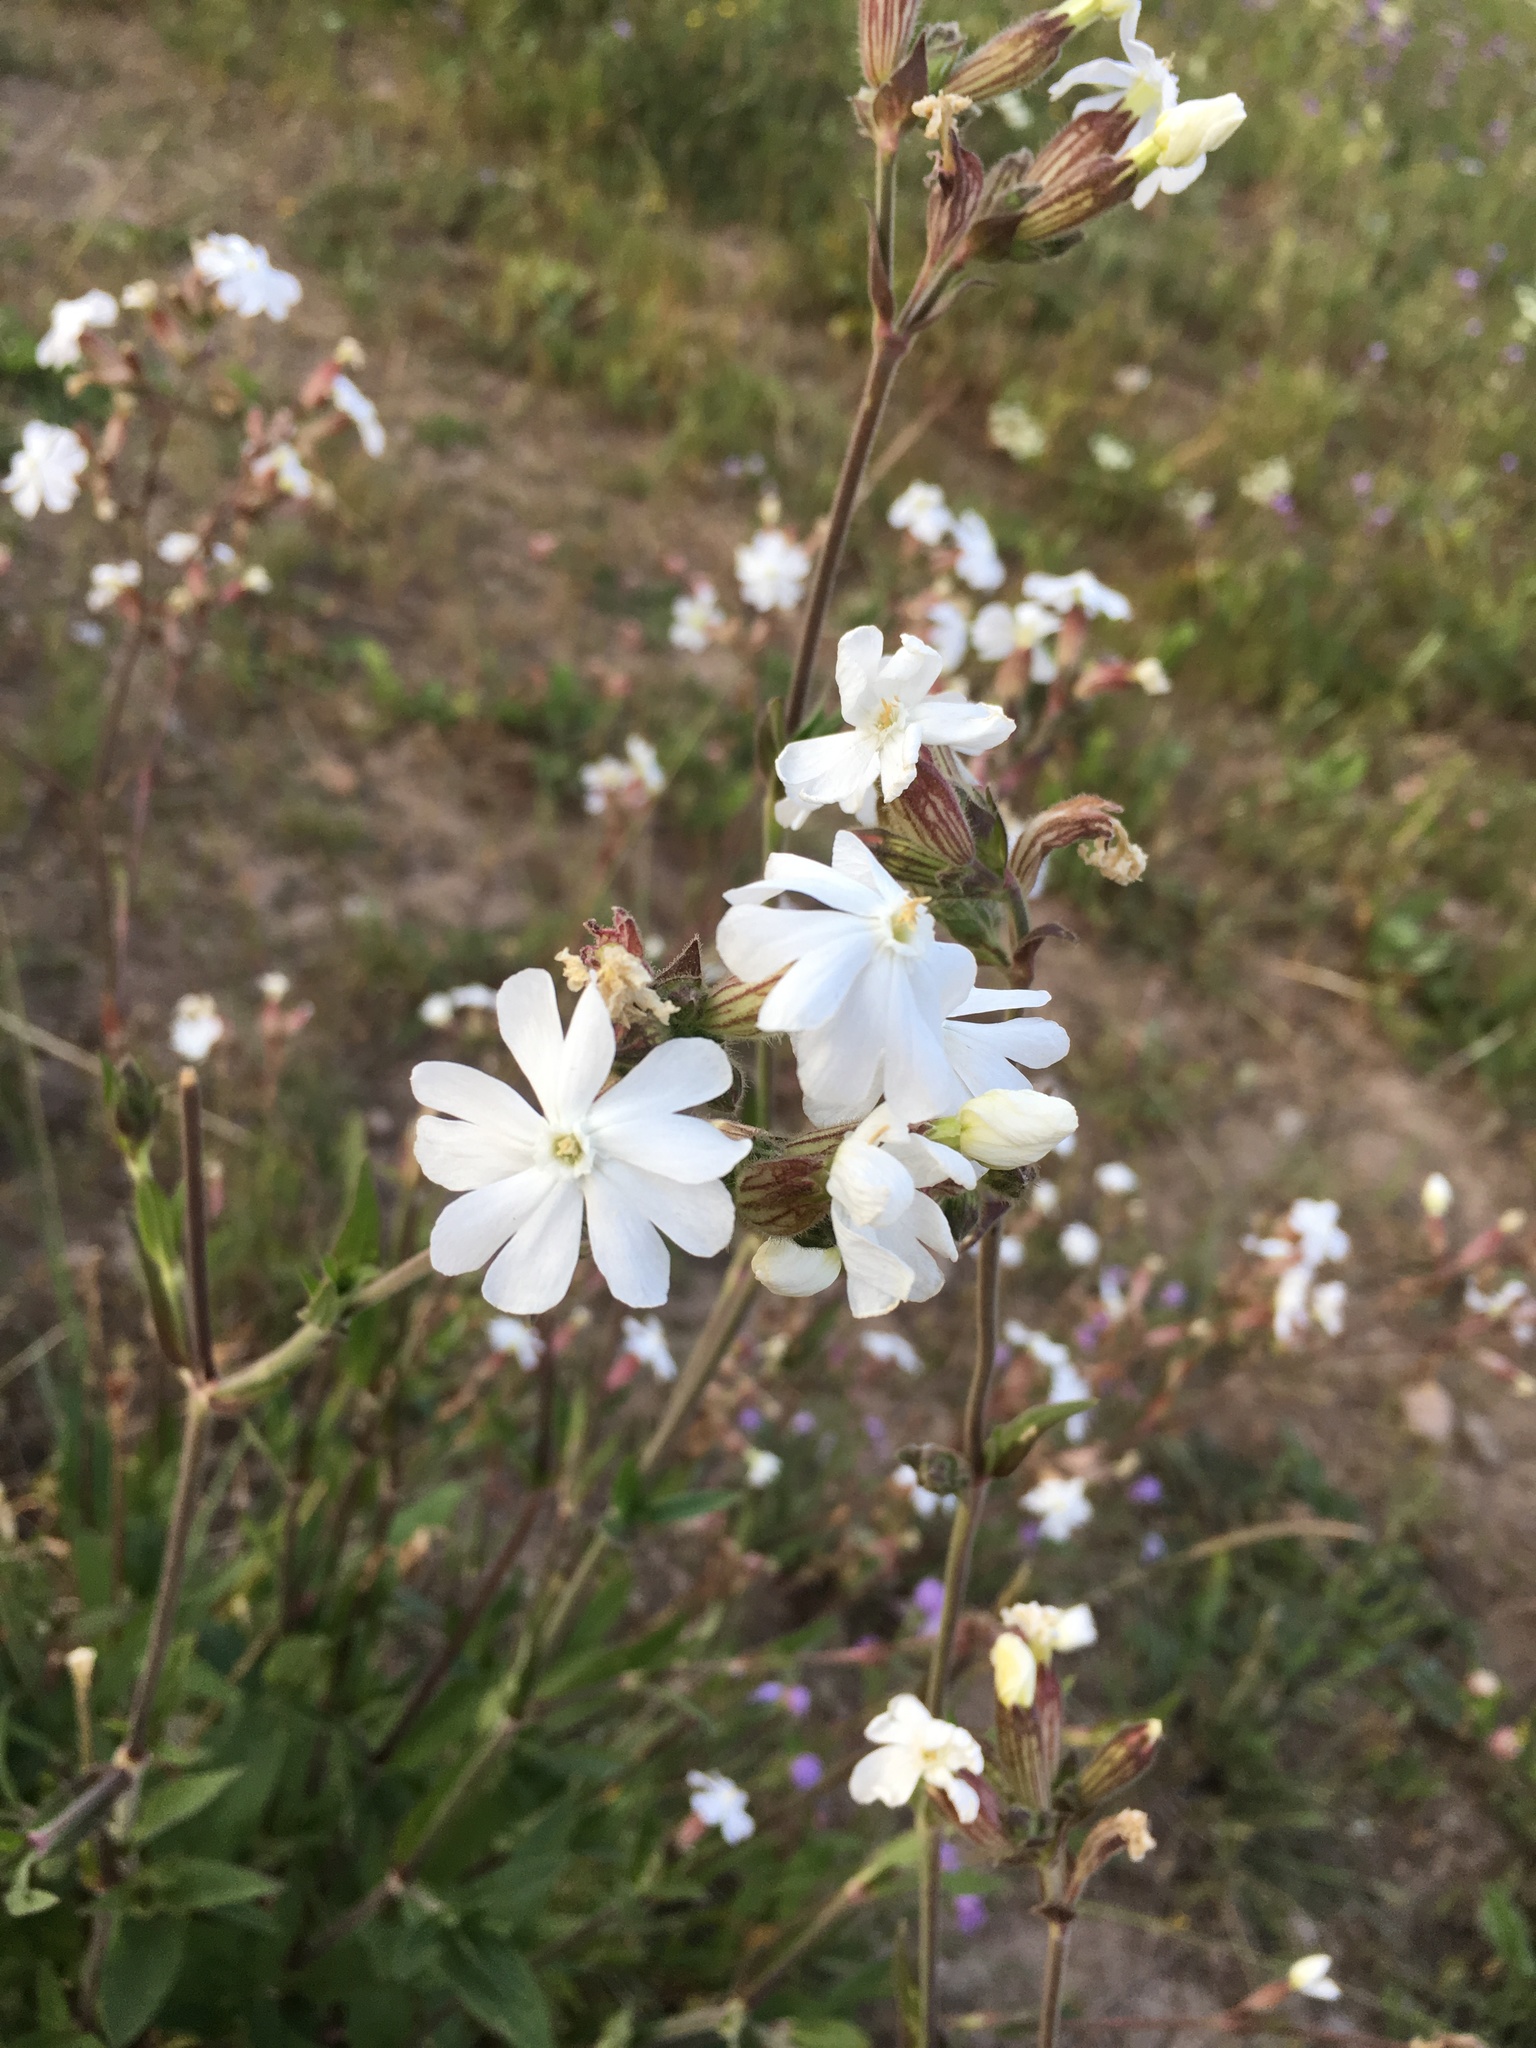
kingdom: Plantae
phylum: Tracheophyta
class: Magnoliopsida
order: Caryophyllales
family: Caryophyllaceae
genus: Silene
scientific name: Silene latifolia
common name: White campion
